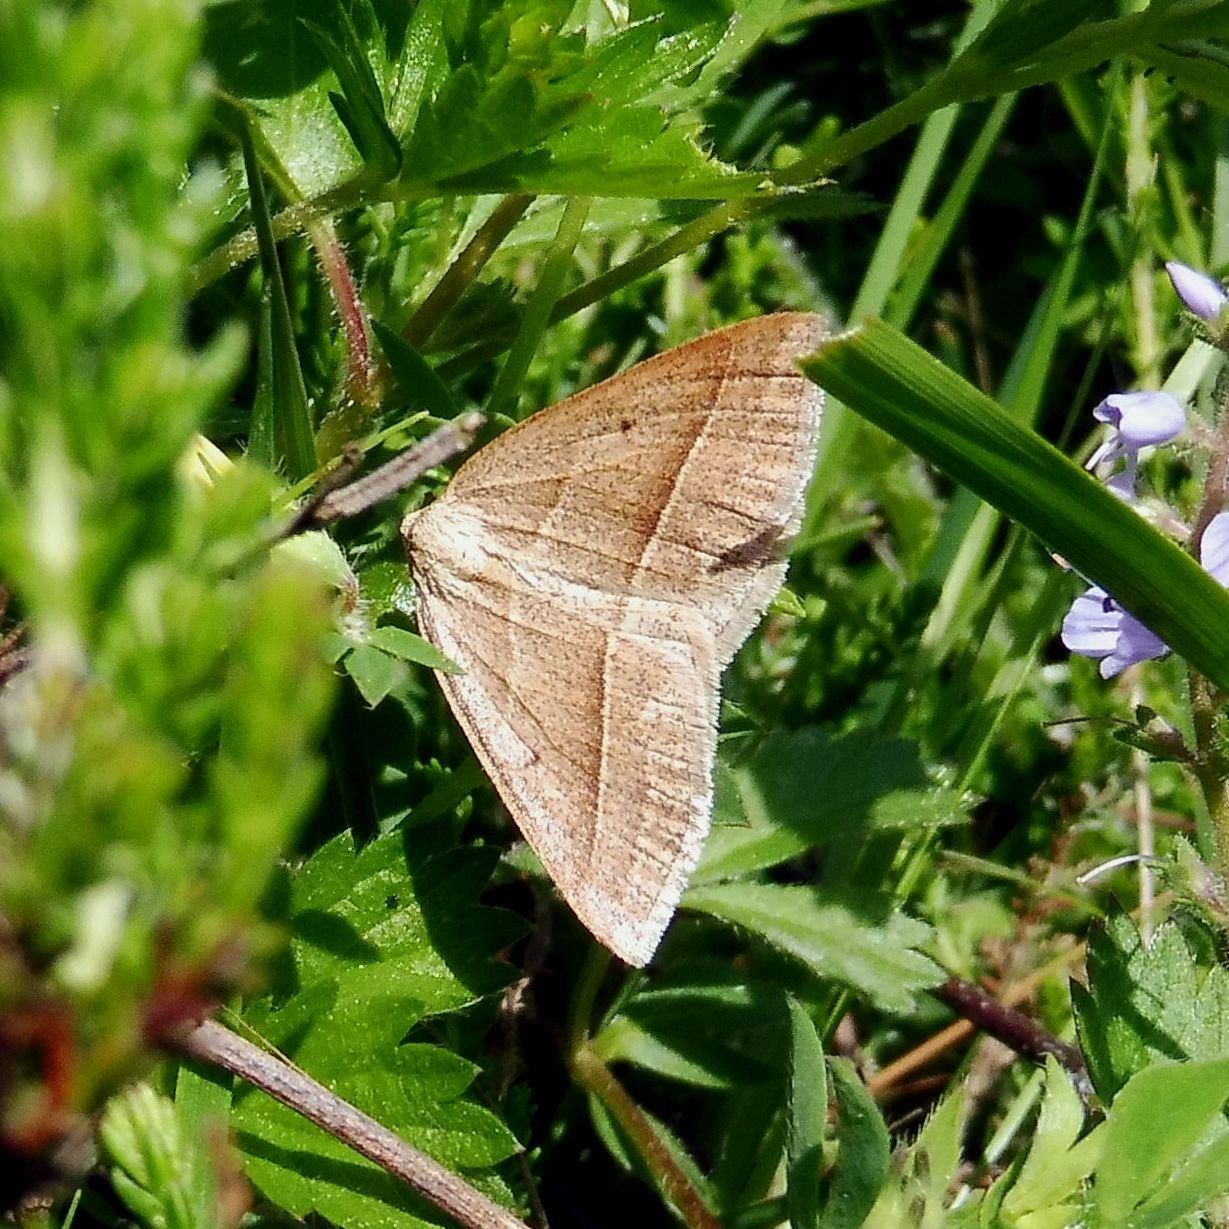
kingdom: Animalia
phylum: Arthropoda
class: Insecta
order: Lepidoptera
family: Pterophoridae
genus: Pterophorus
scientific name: Pterophorus Petrophora chlorosata
